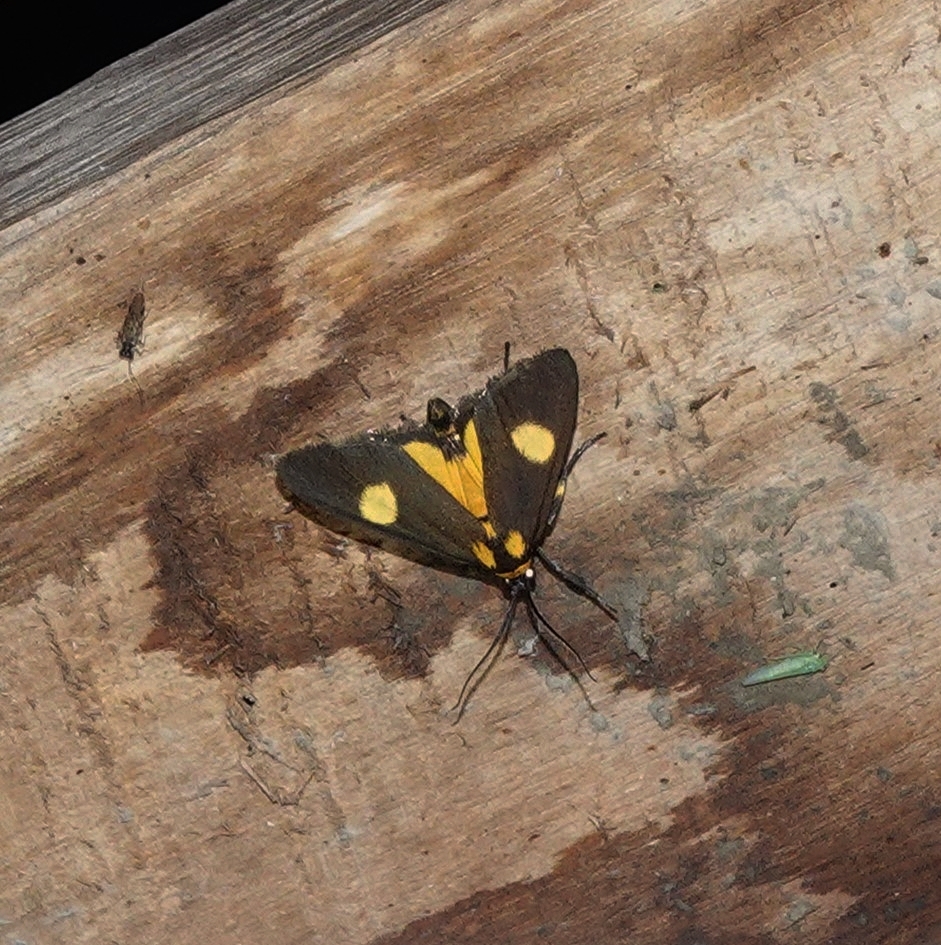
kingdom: Animalia
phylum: Arthropoda
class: Insecta
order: Lepidoptera
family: Pyralidae
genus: Lophocera
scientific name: Lophocera flavipuncta
